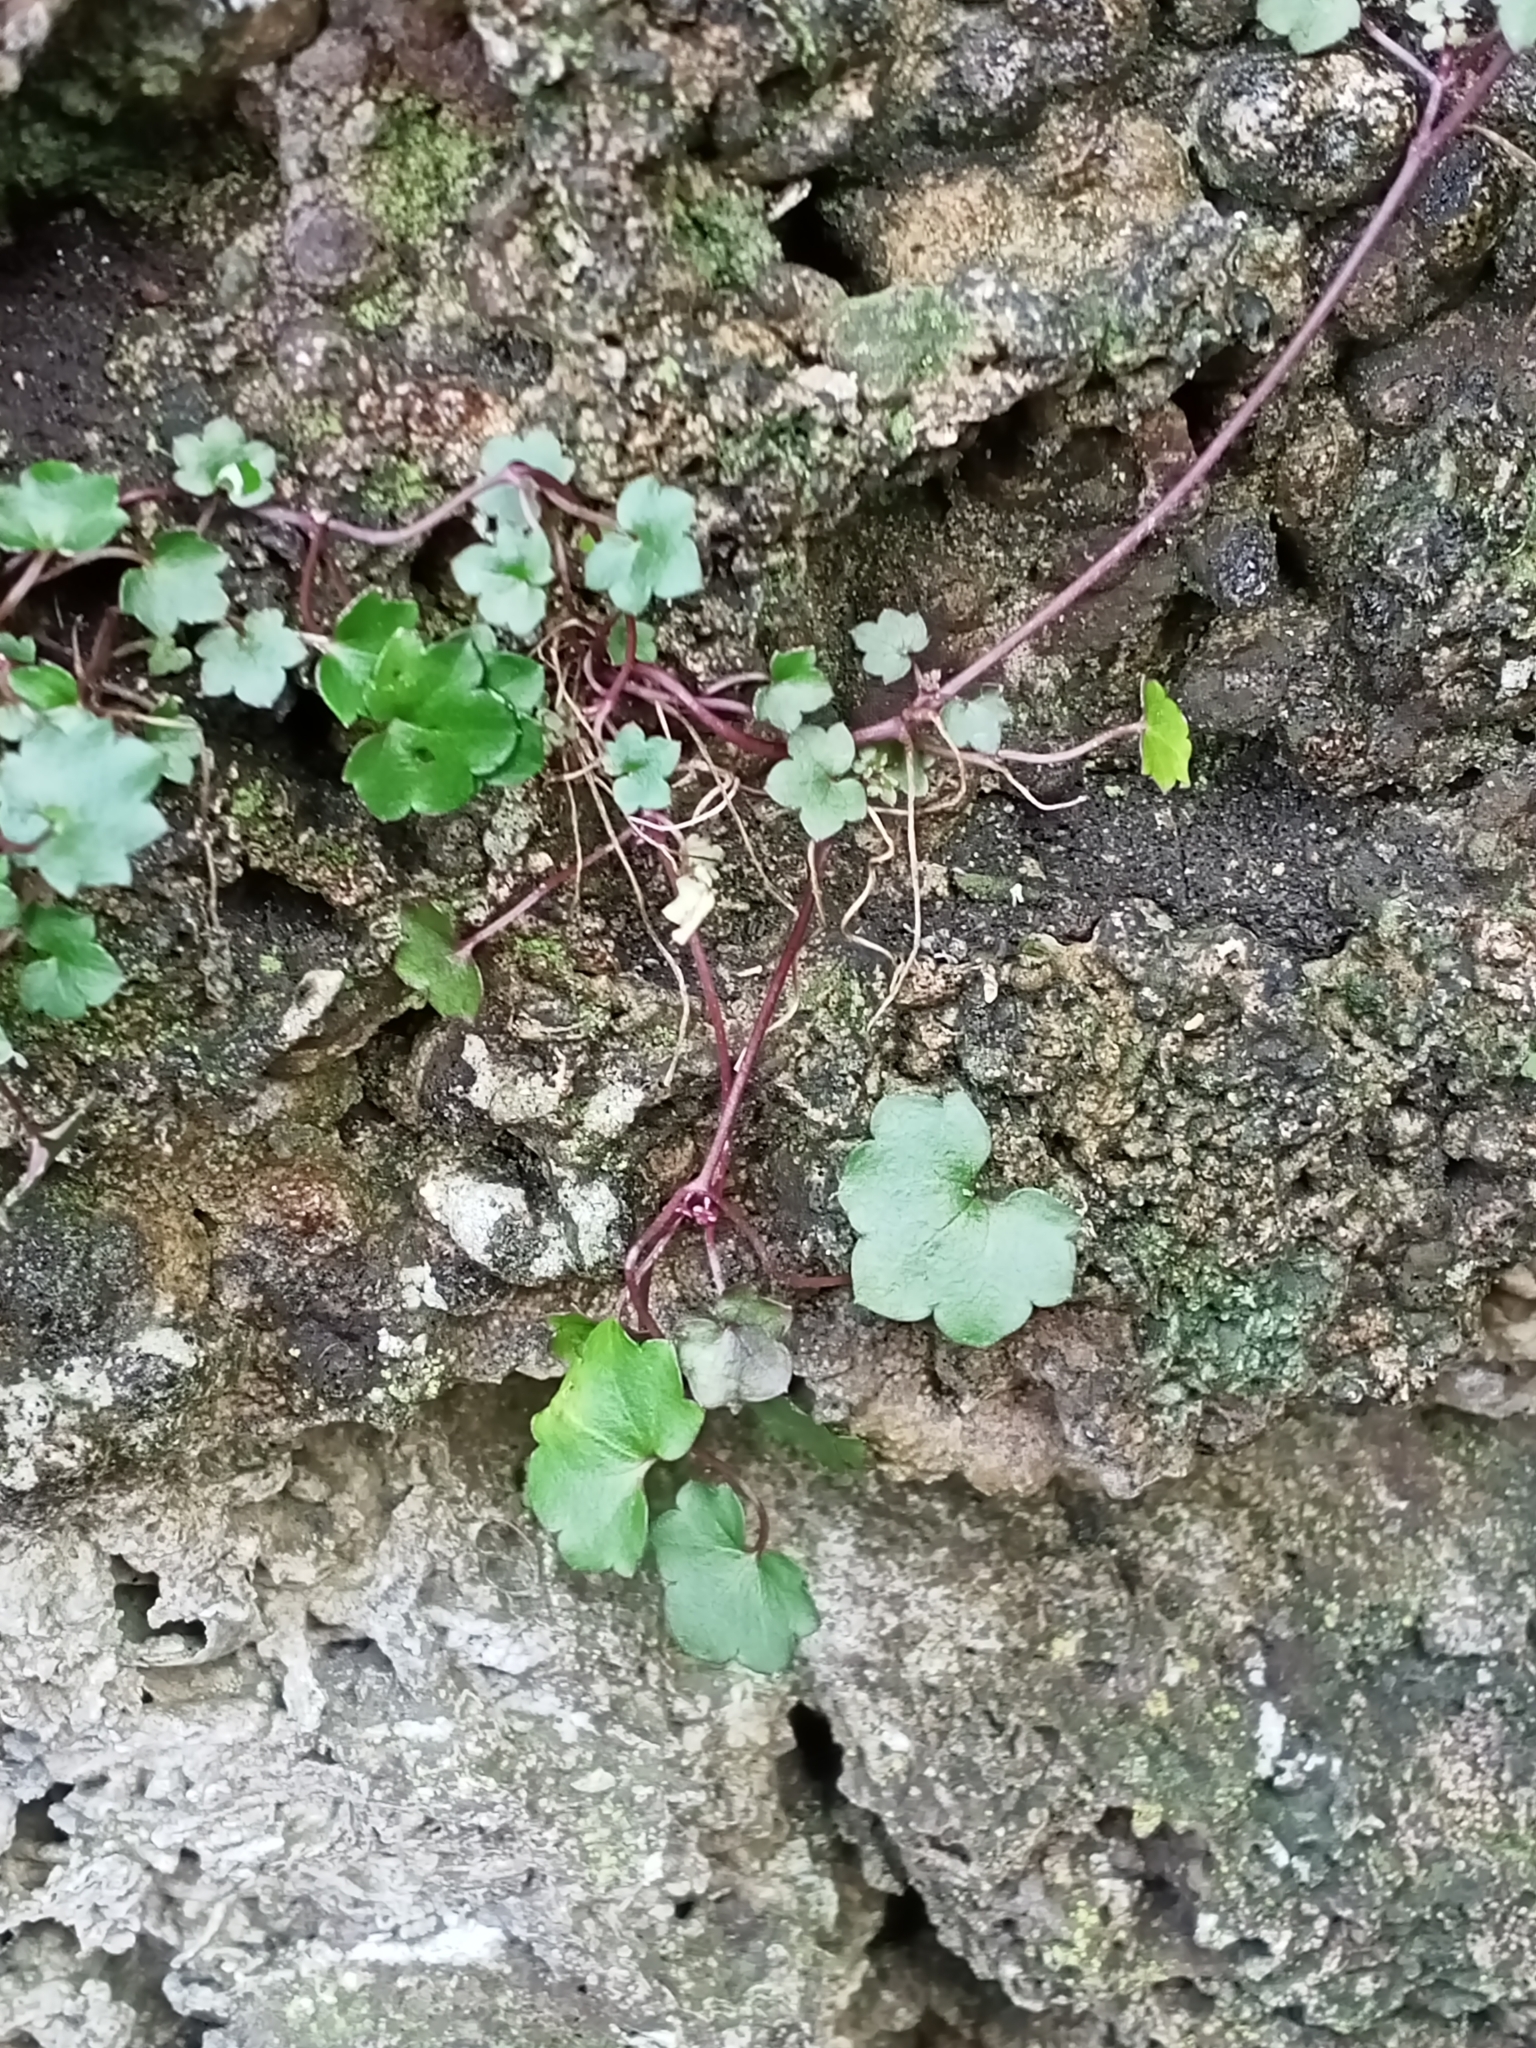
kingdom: Plantae
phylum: Tracheophyta
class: Magnoliopsida
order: Lamiales
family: Plantaginaceae
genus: Cymbalaria
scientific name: Cymbalaria muralis
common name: Ivy-leaved toadflax
